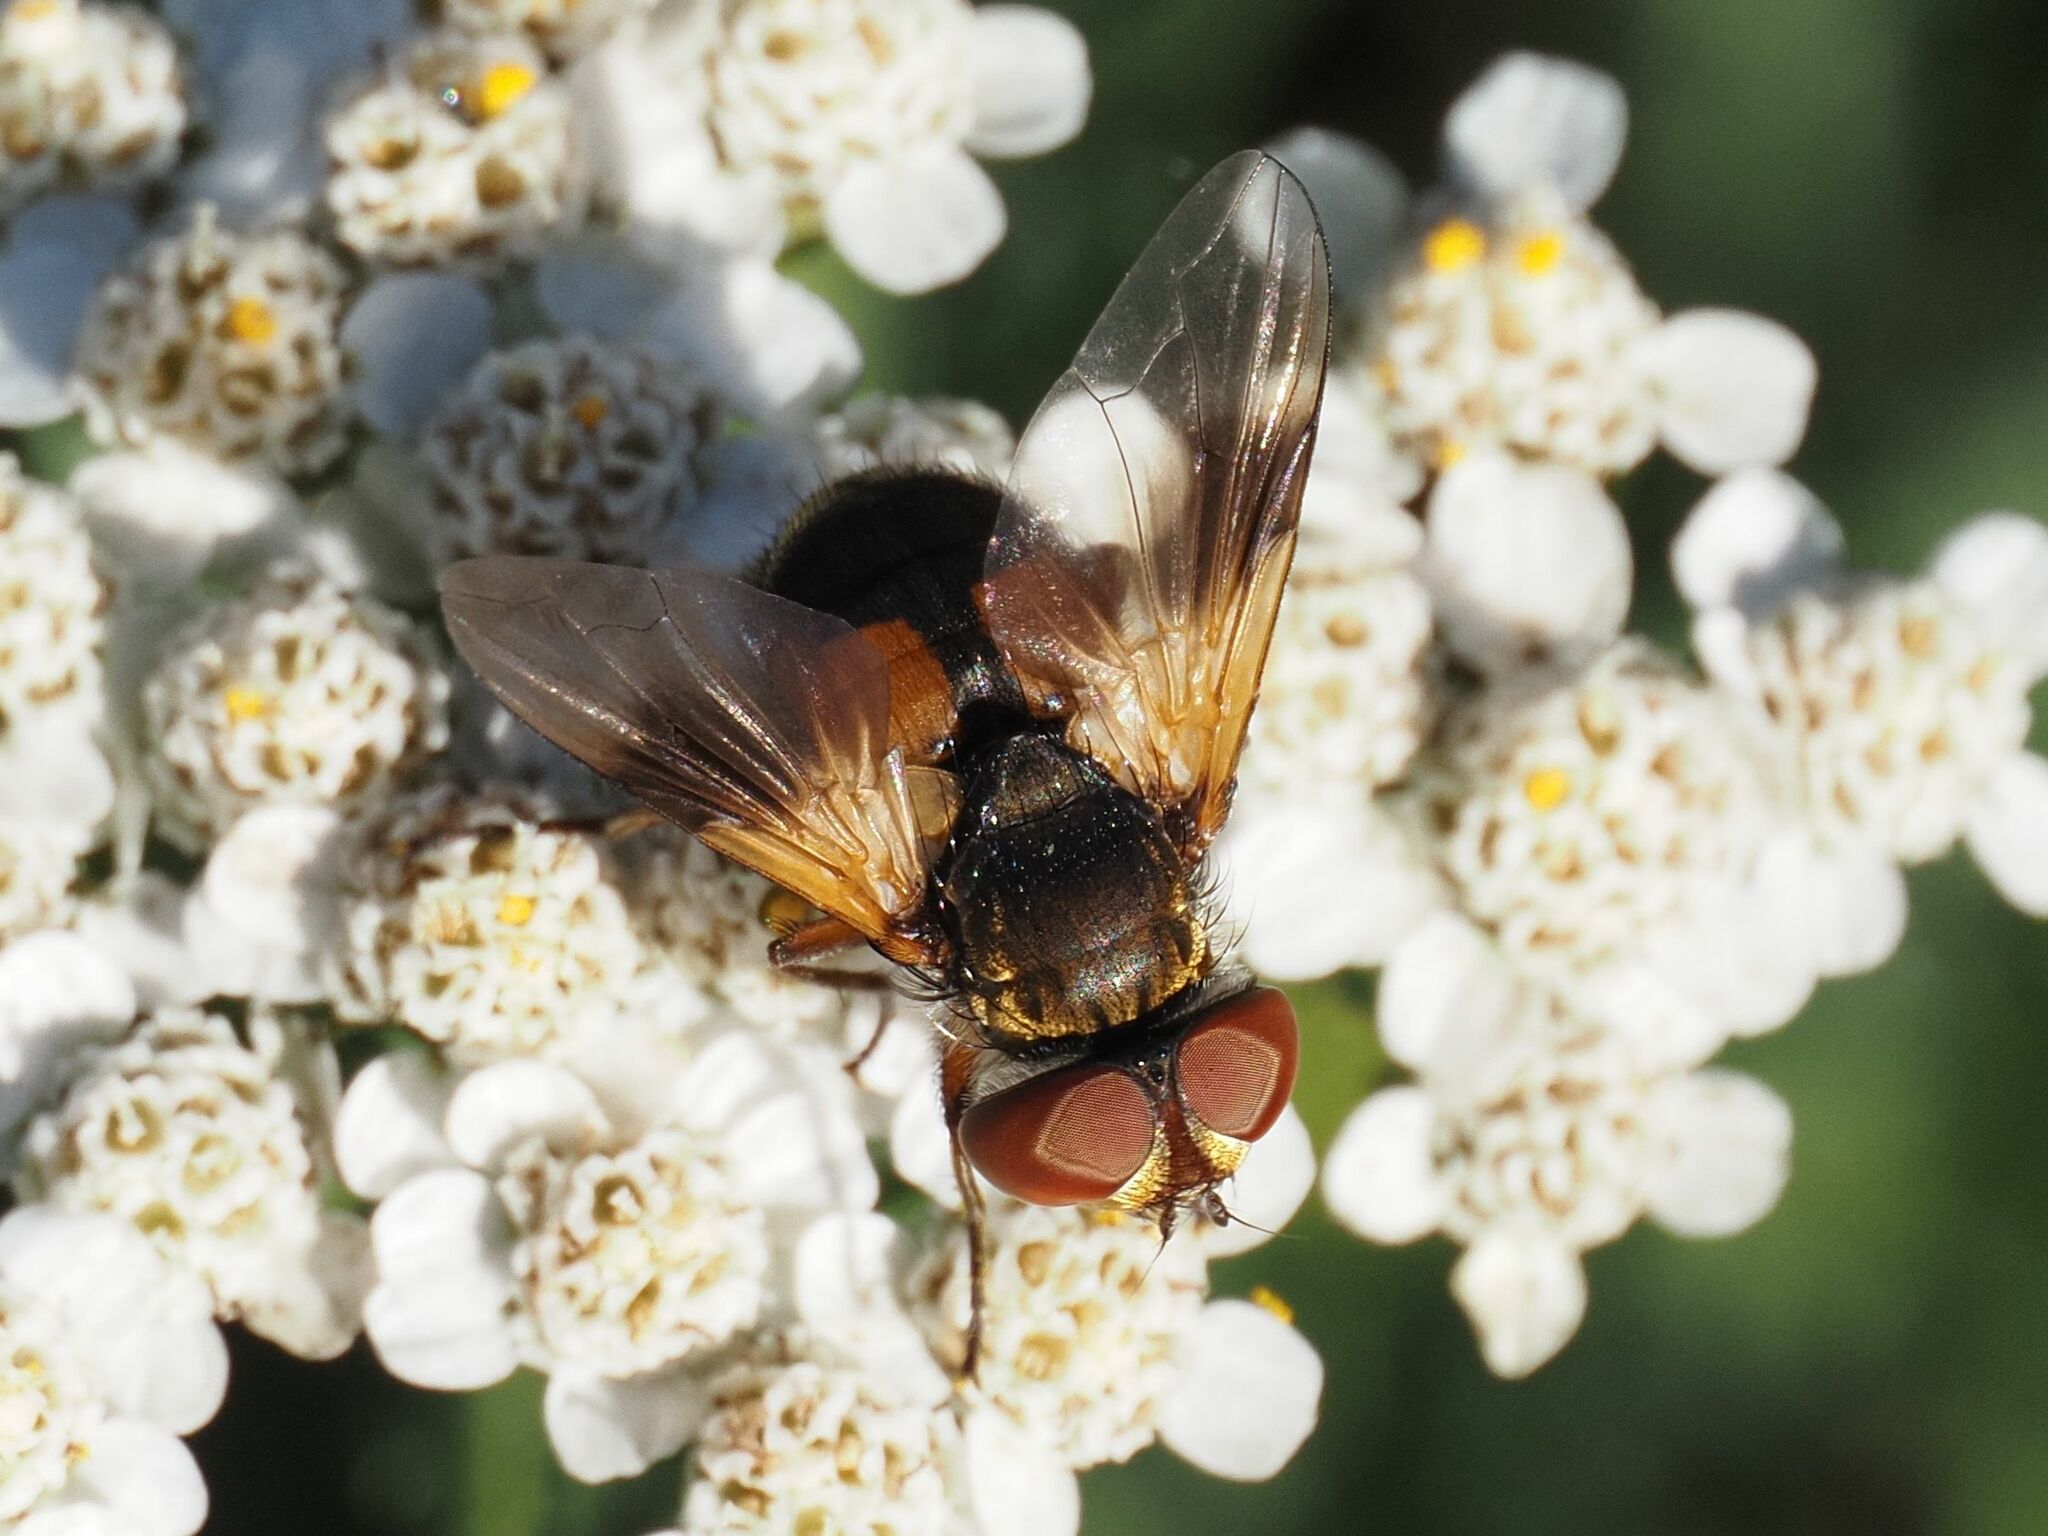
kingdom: Animalia
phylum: Arthropoda
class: Insecta
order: Diptera
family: Tachinidae
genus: Ectophasia
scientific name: Ectophasia crassipennis
